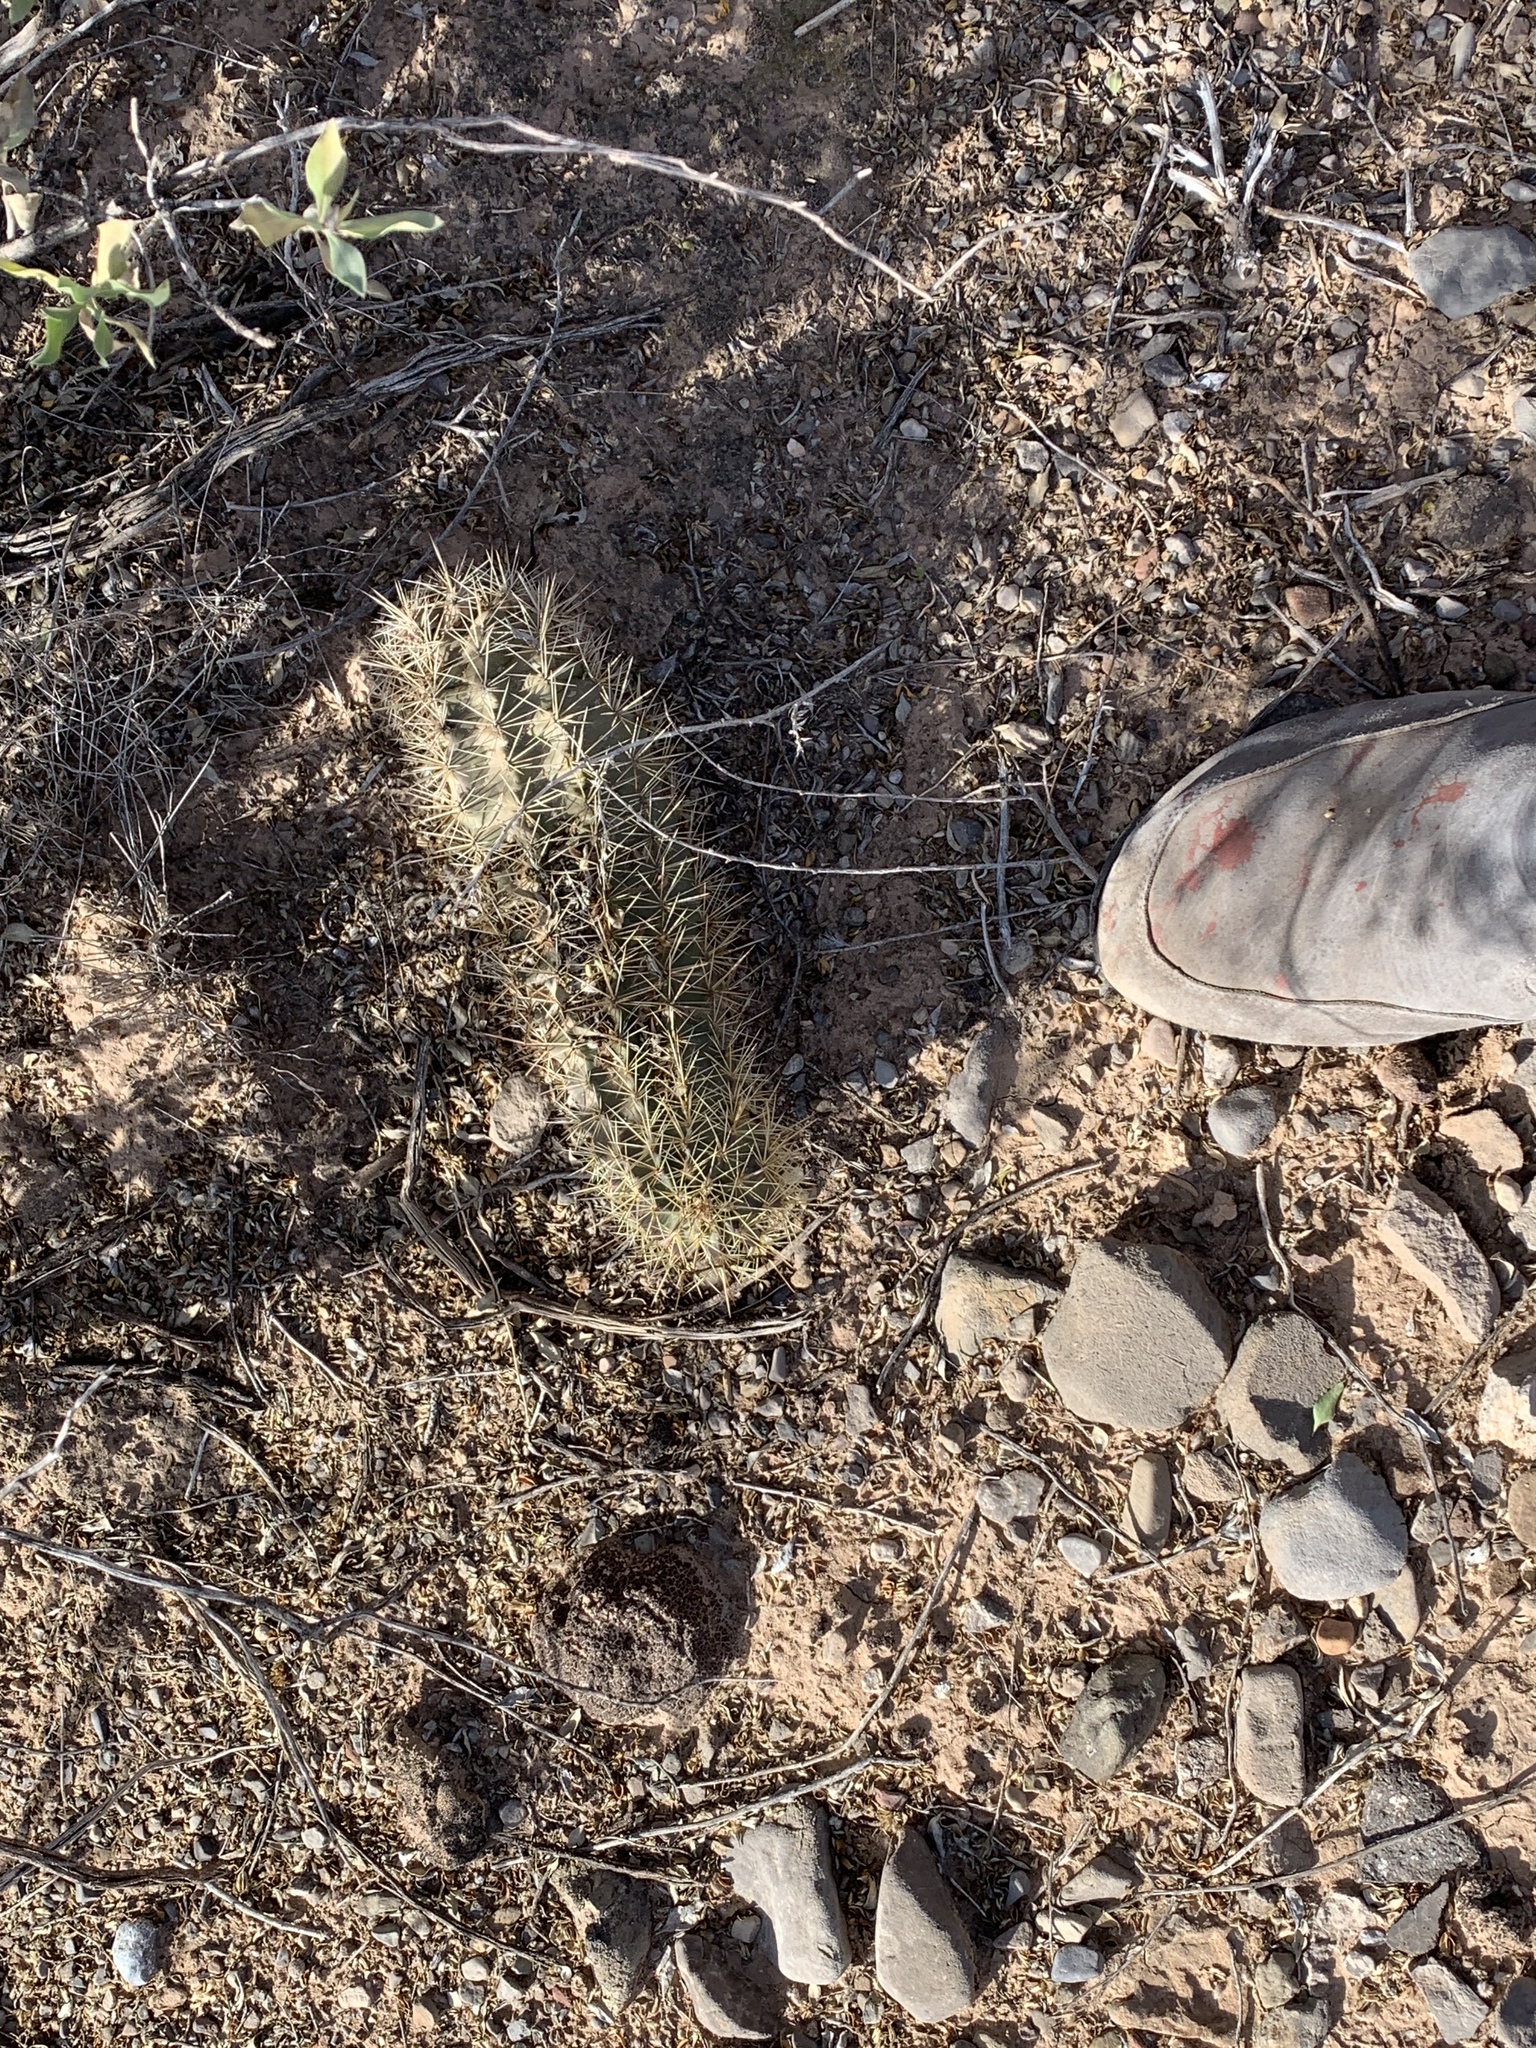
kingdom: Plantae
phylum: Tracheophyta
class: Magnoliopsida
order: Caryophyllales
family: Cactaceae
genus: Echinocereus
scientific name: Echinocereus coccineus
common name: Scarlet hedgehog cactus
